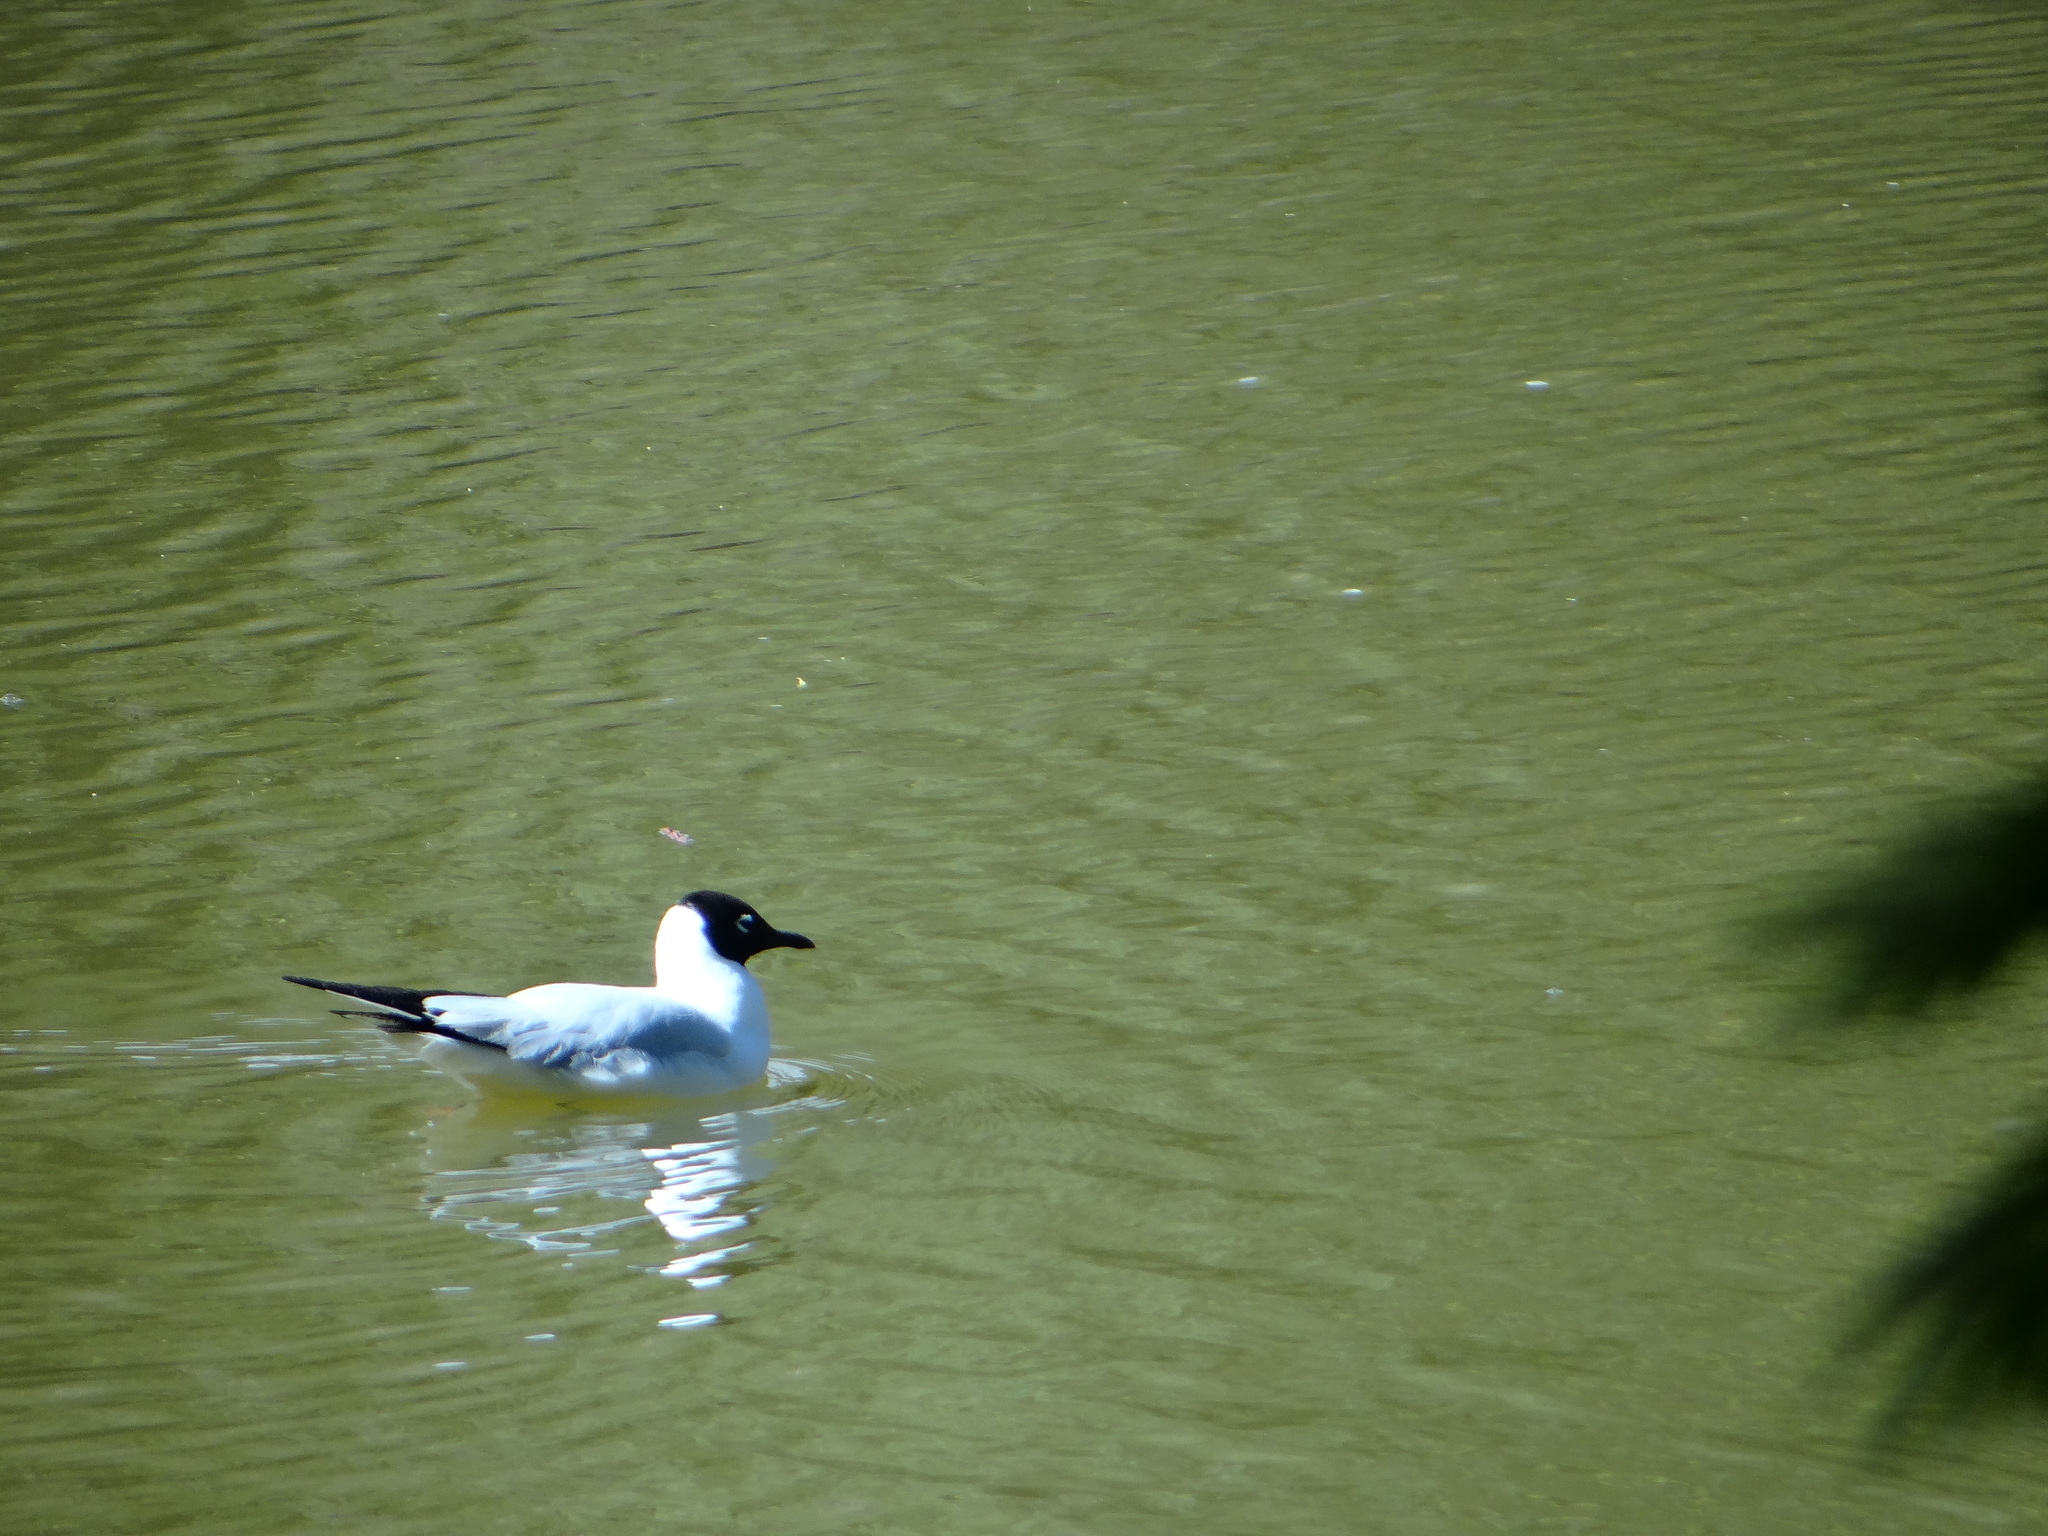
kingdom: Animalia
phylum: Chordata
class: Aves
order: Charadriiformes
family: Laridae
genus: Chroicocephalus
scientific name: Chroicocephalus serranus
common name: Andean gull
